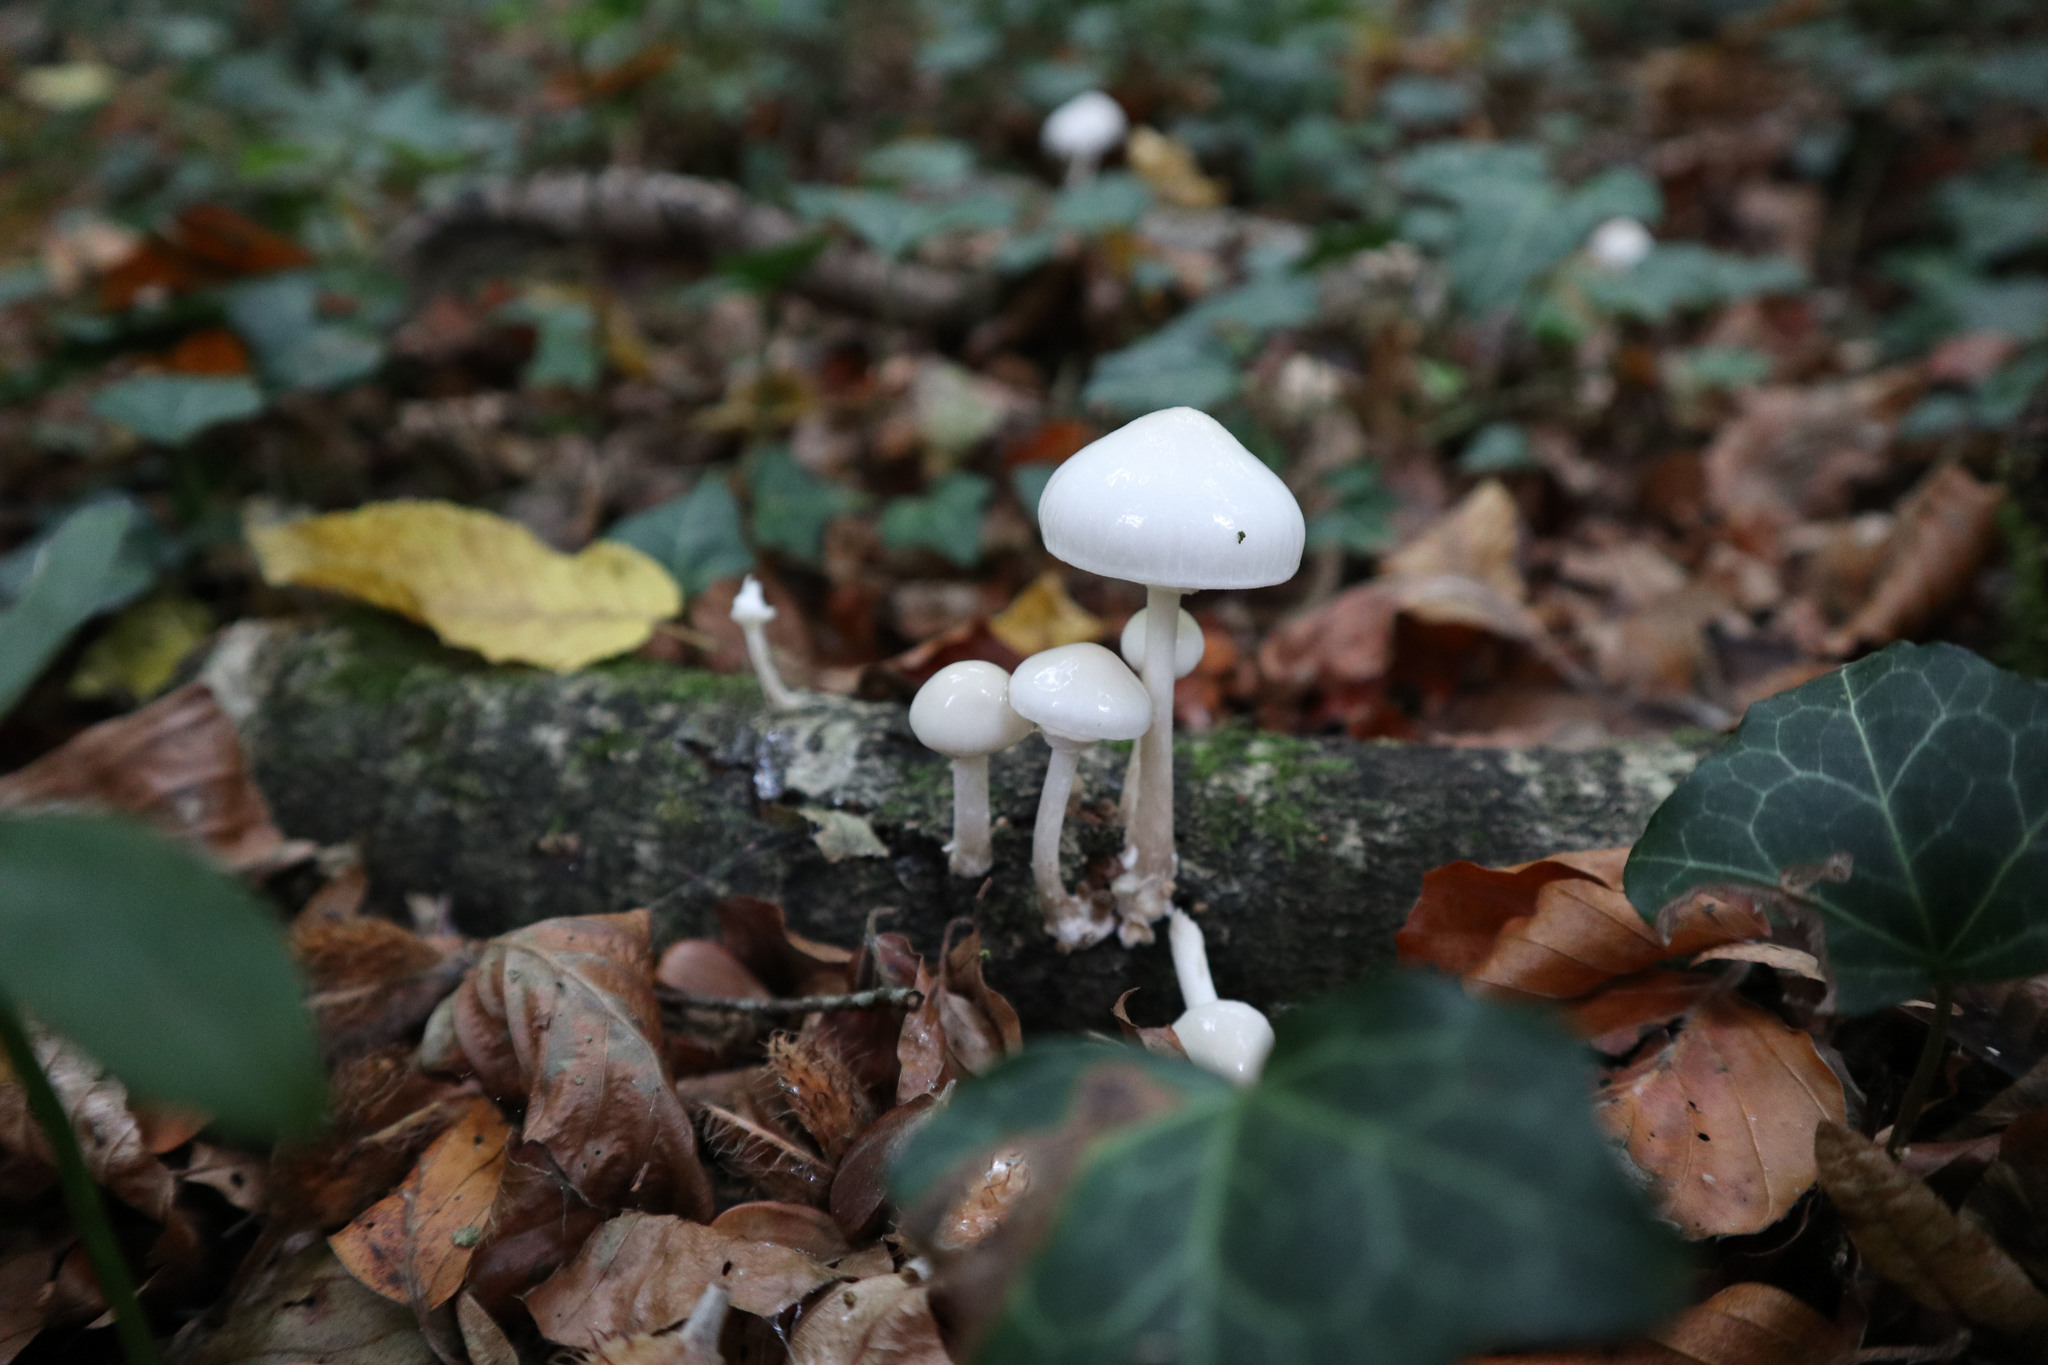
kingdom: Fungi
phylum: Basidiomycota
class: Agaricomycetes
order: Agaricales
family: Physalacriaceae
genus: Mucidula
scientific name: Mucidula mucida
